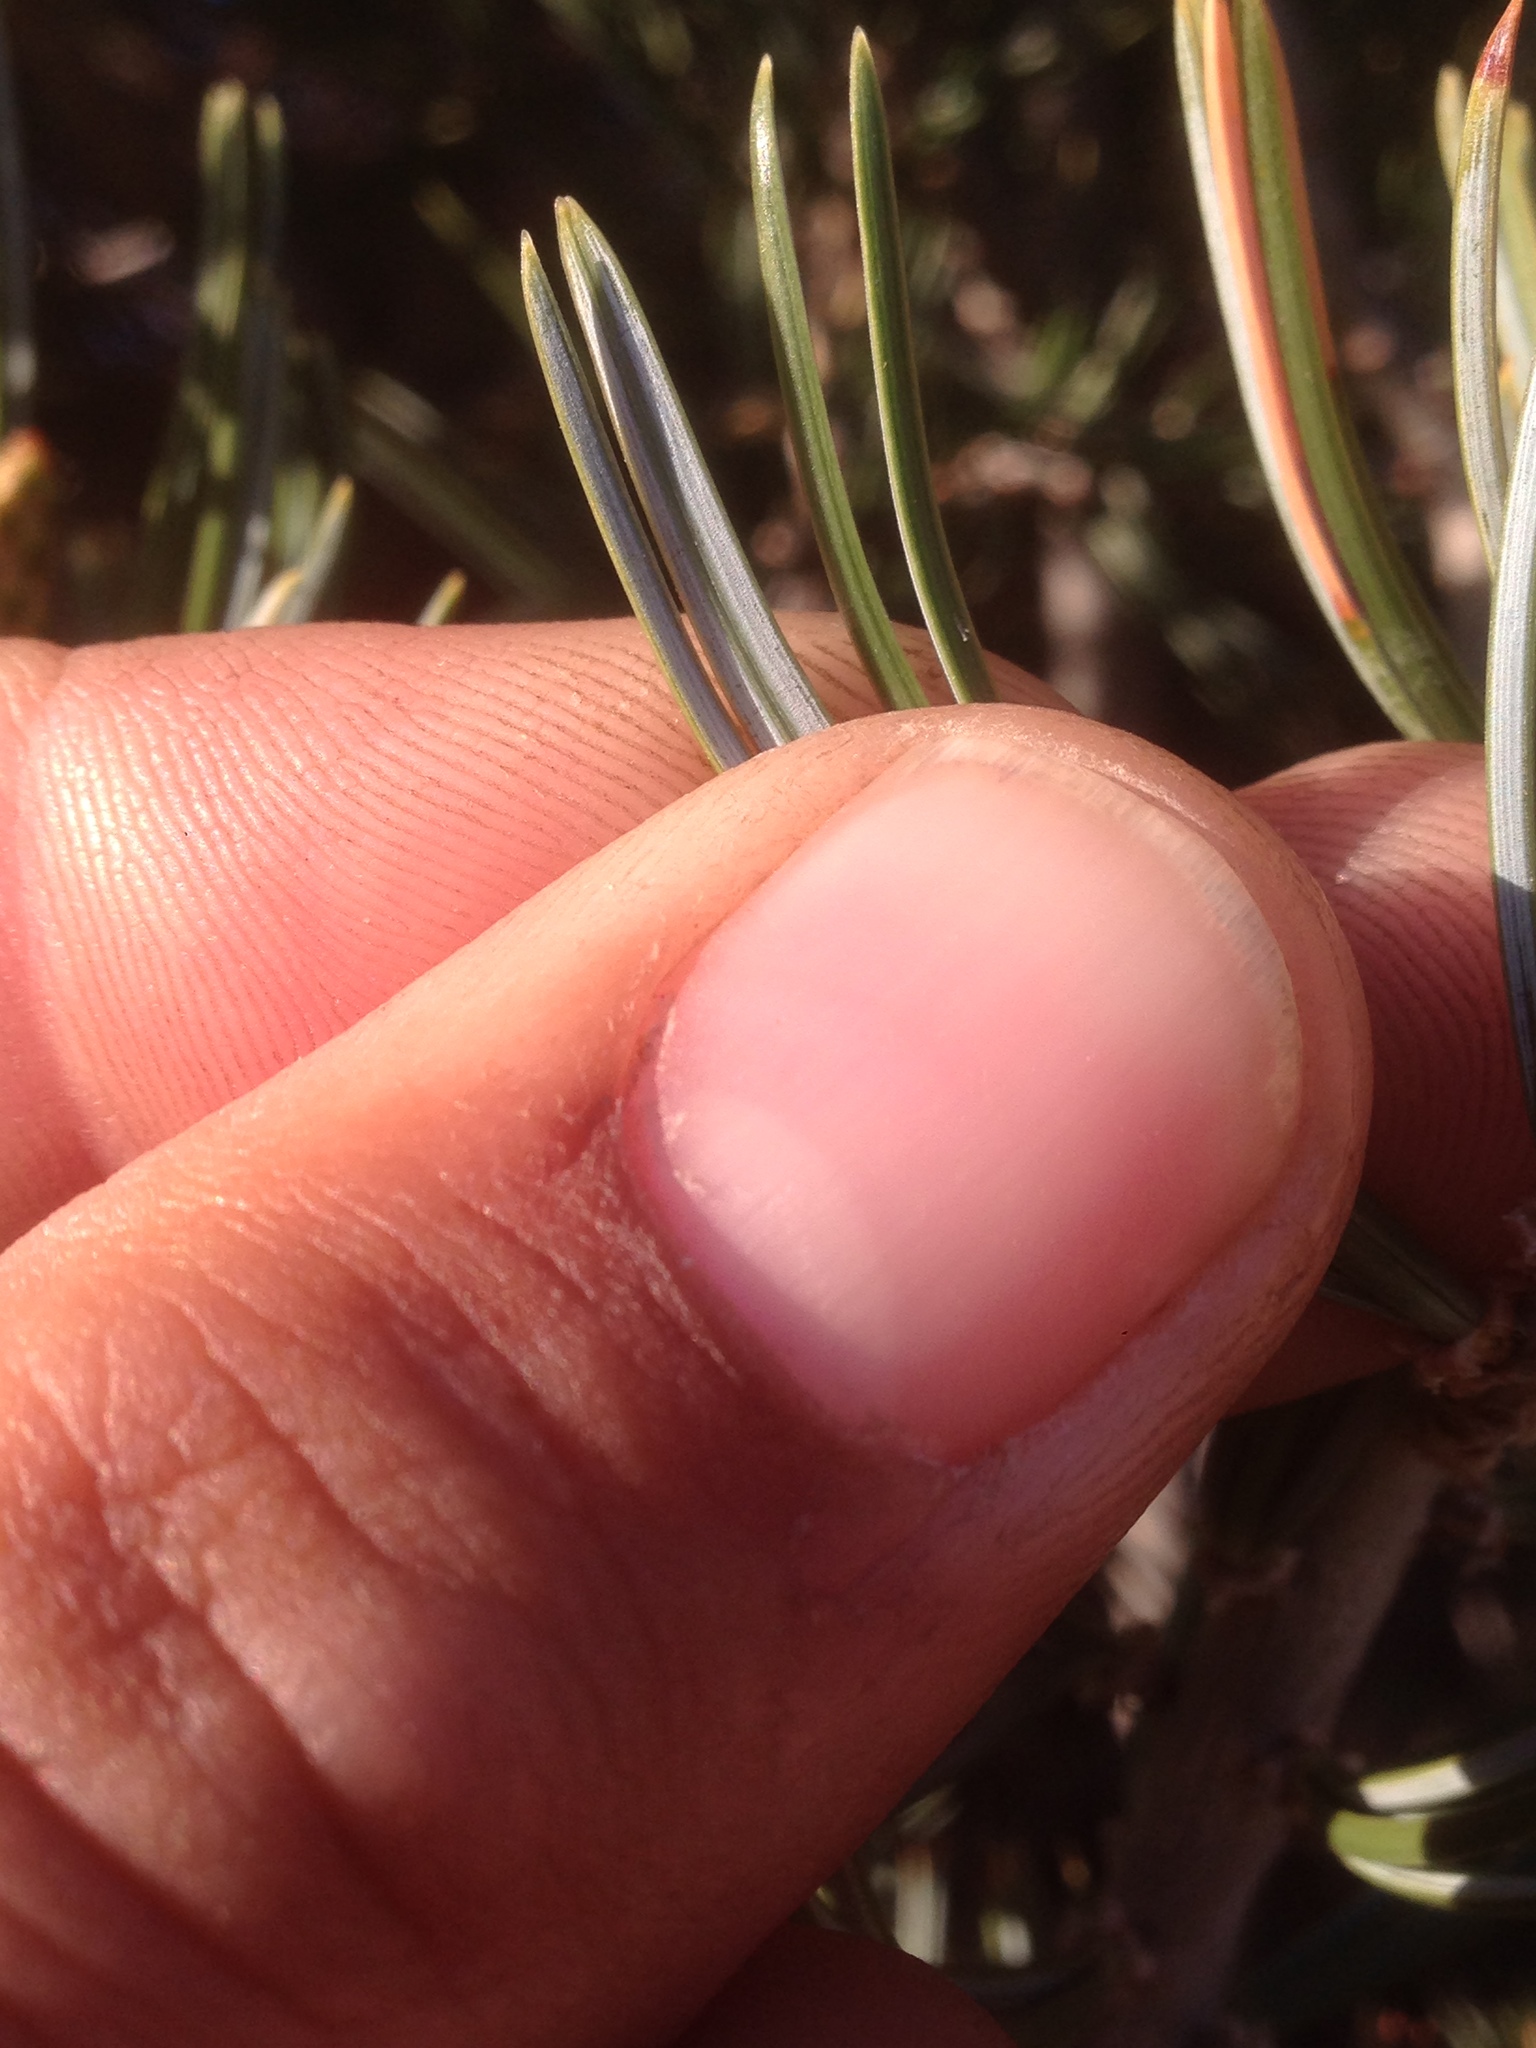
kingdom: Plantae
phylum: Tracheophyta
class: Pinopsida
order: Pinales
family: Pinaceae
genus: Pinus
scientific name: Pinus quadrifolia
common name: Parry pinyon
